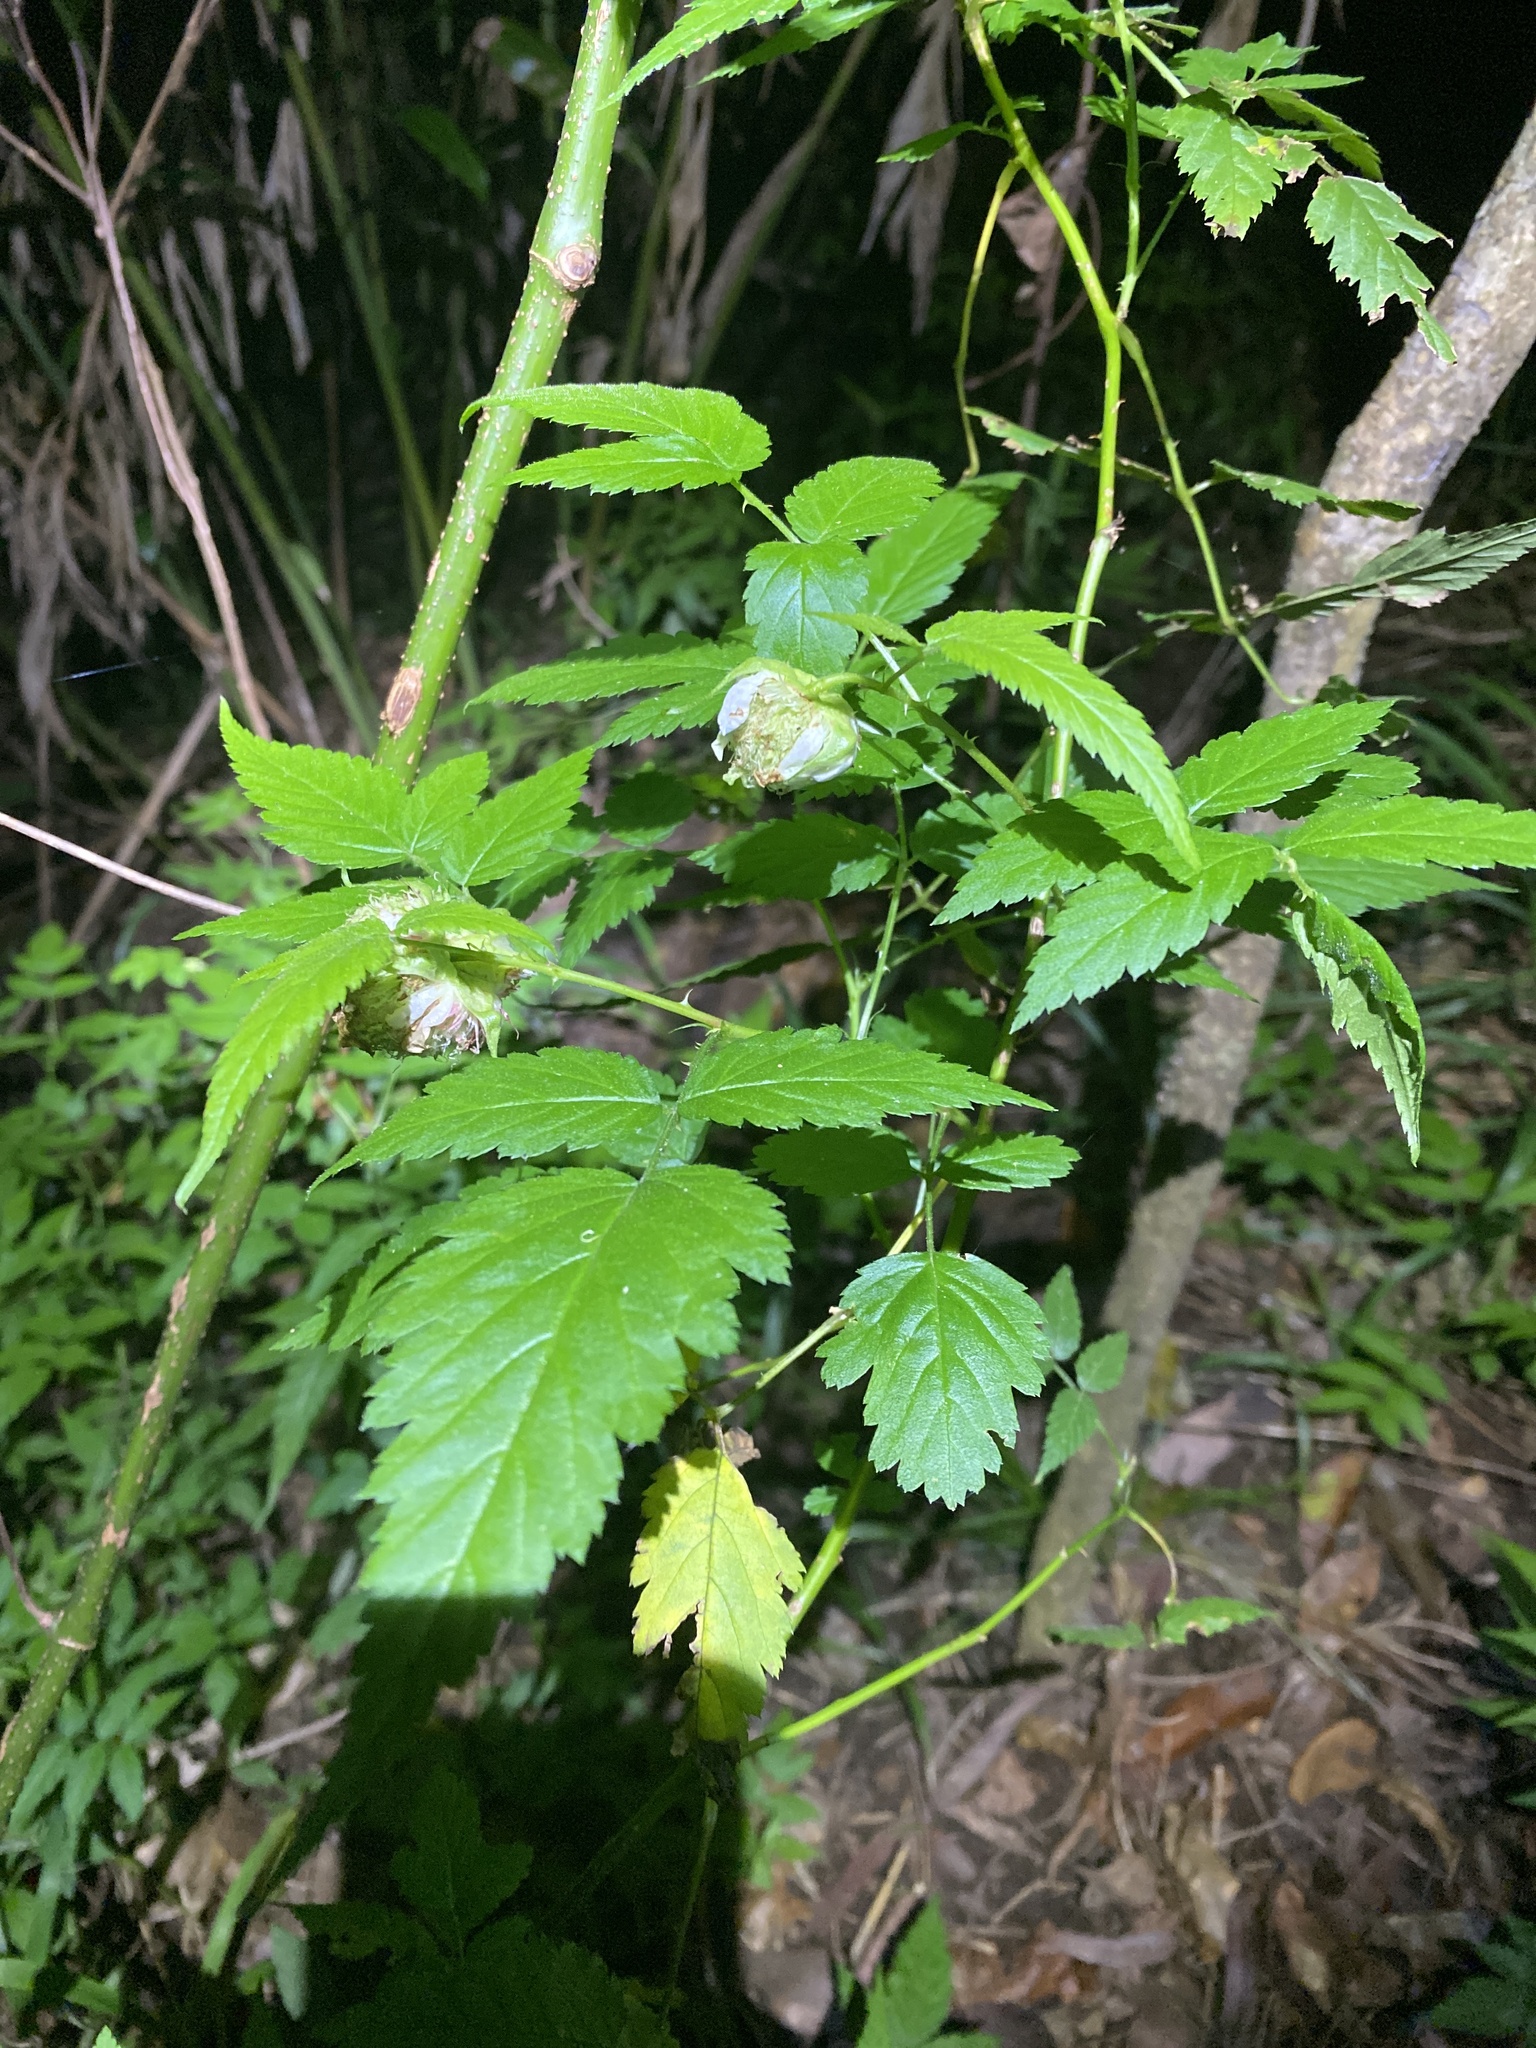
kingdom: Plantae
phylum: Tracheophyta
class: Magnoliopsida
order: Rosales
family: Rosaceae
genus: Rubus
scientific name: Rubus rosifolius
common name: Roseleaf raspberry
